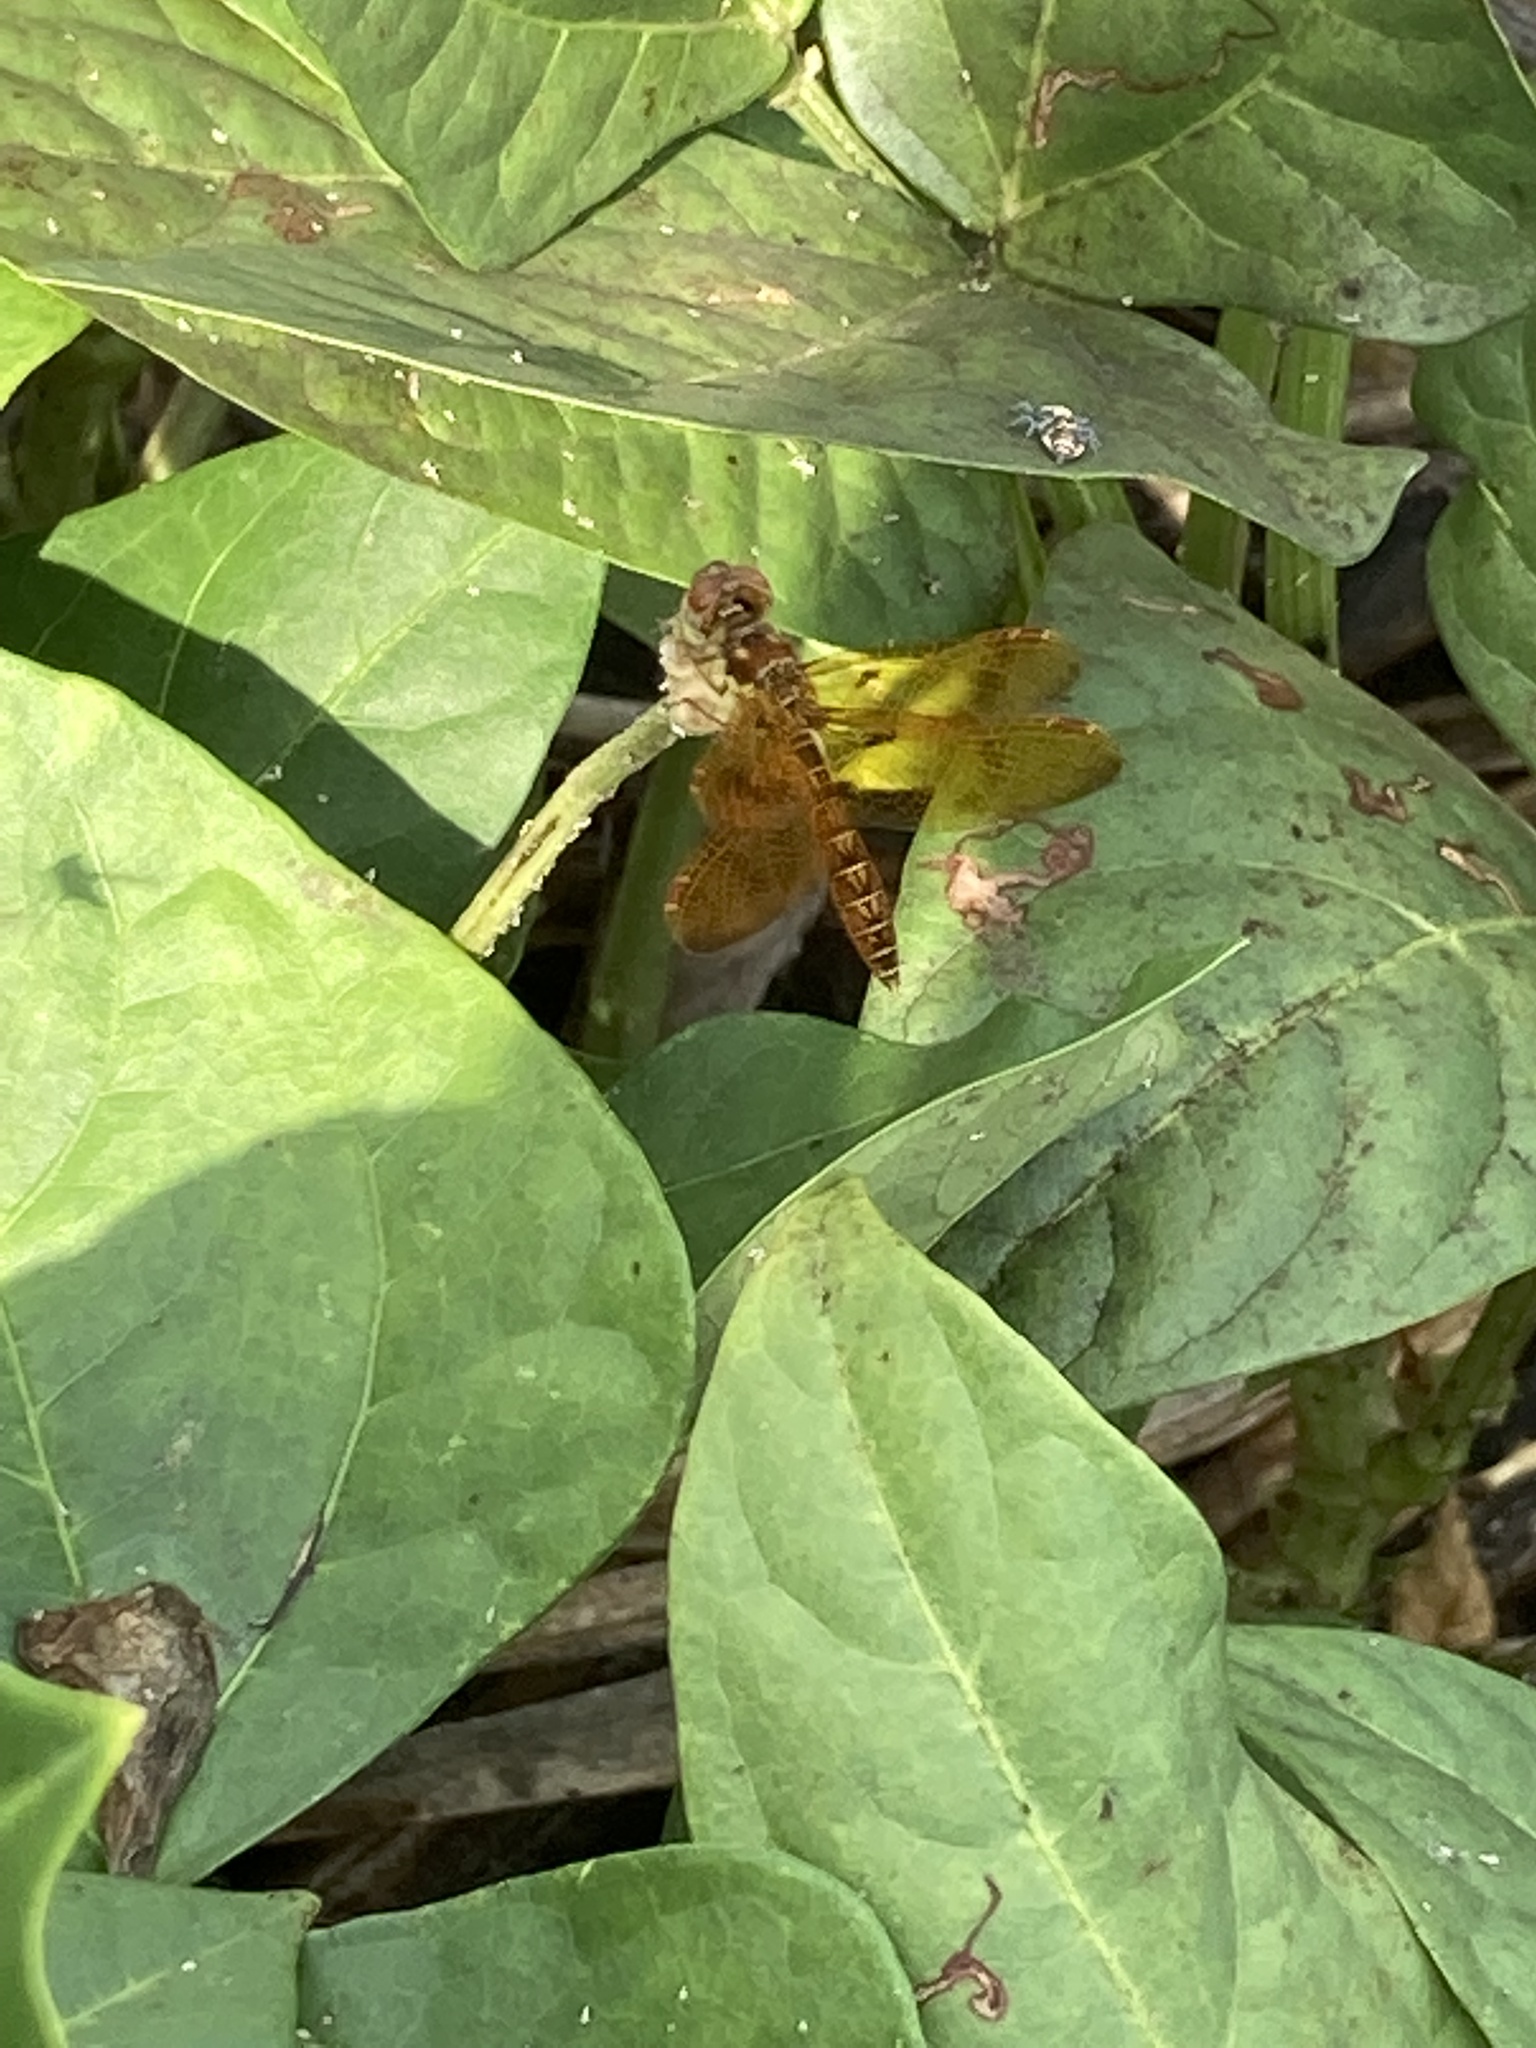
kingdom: Animalia
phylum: Arthropoda
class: Insecta
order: Odonata
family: Libellulidae
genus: Perithemis
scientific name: Perithemis tenera
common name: Eastern amberwing
